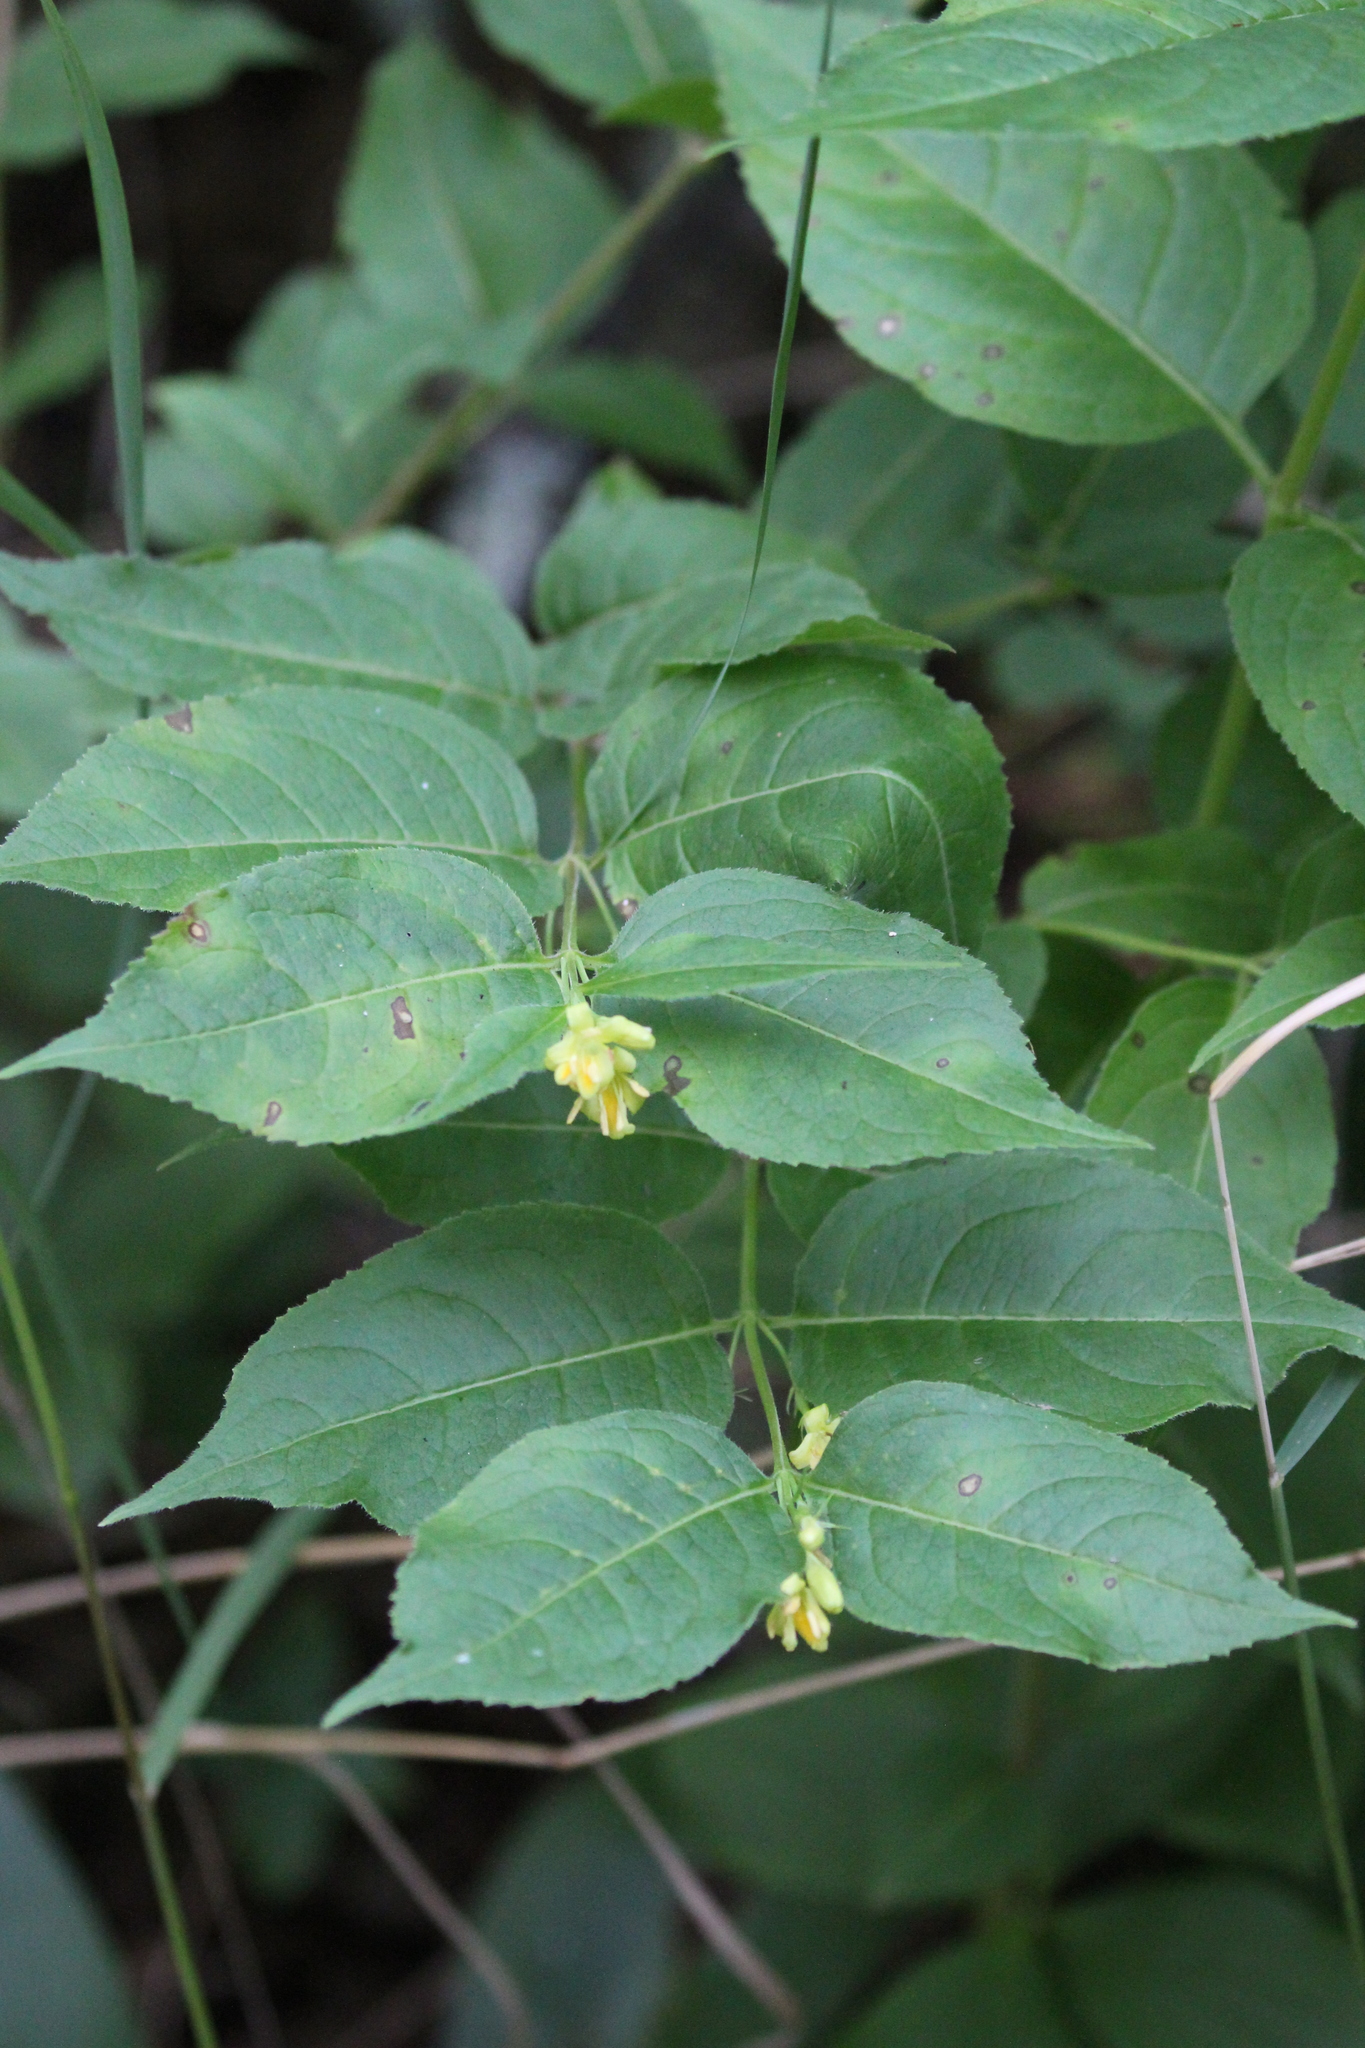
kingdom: Plantae
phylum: Tracheophyta
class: Magnoliopsida
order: Dipsacales
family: Caprifoliaceae
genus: Diervilla
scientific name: Diervilla lonicera
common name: Bush-honeysuckle
